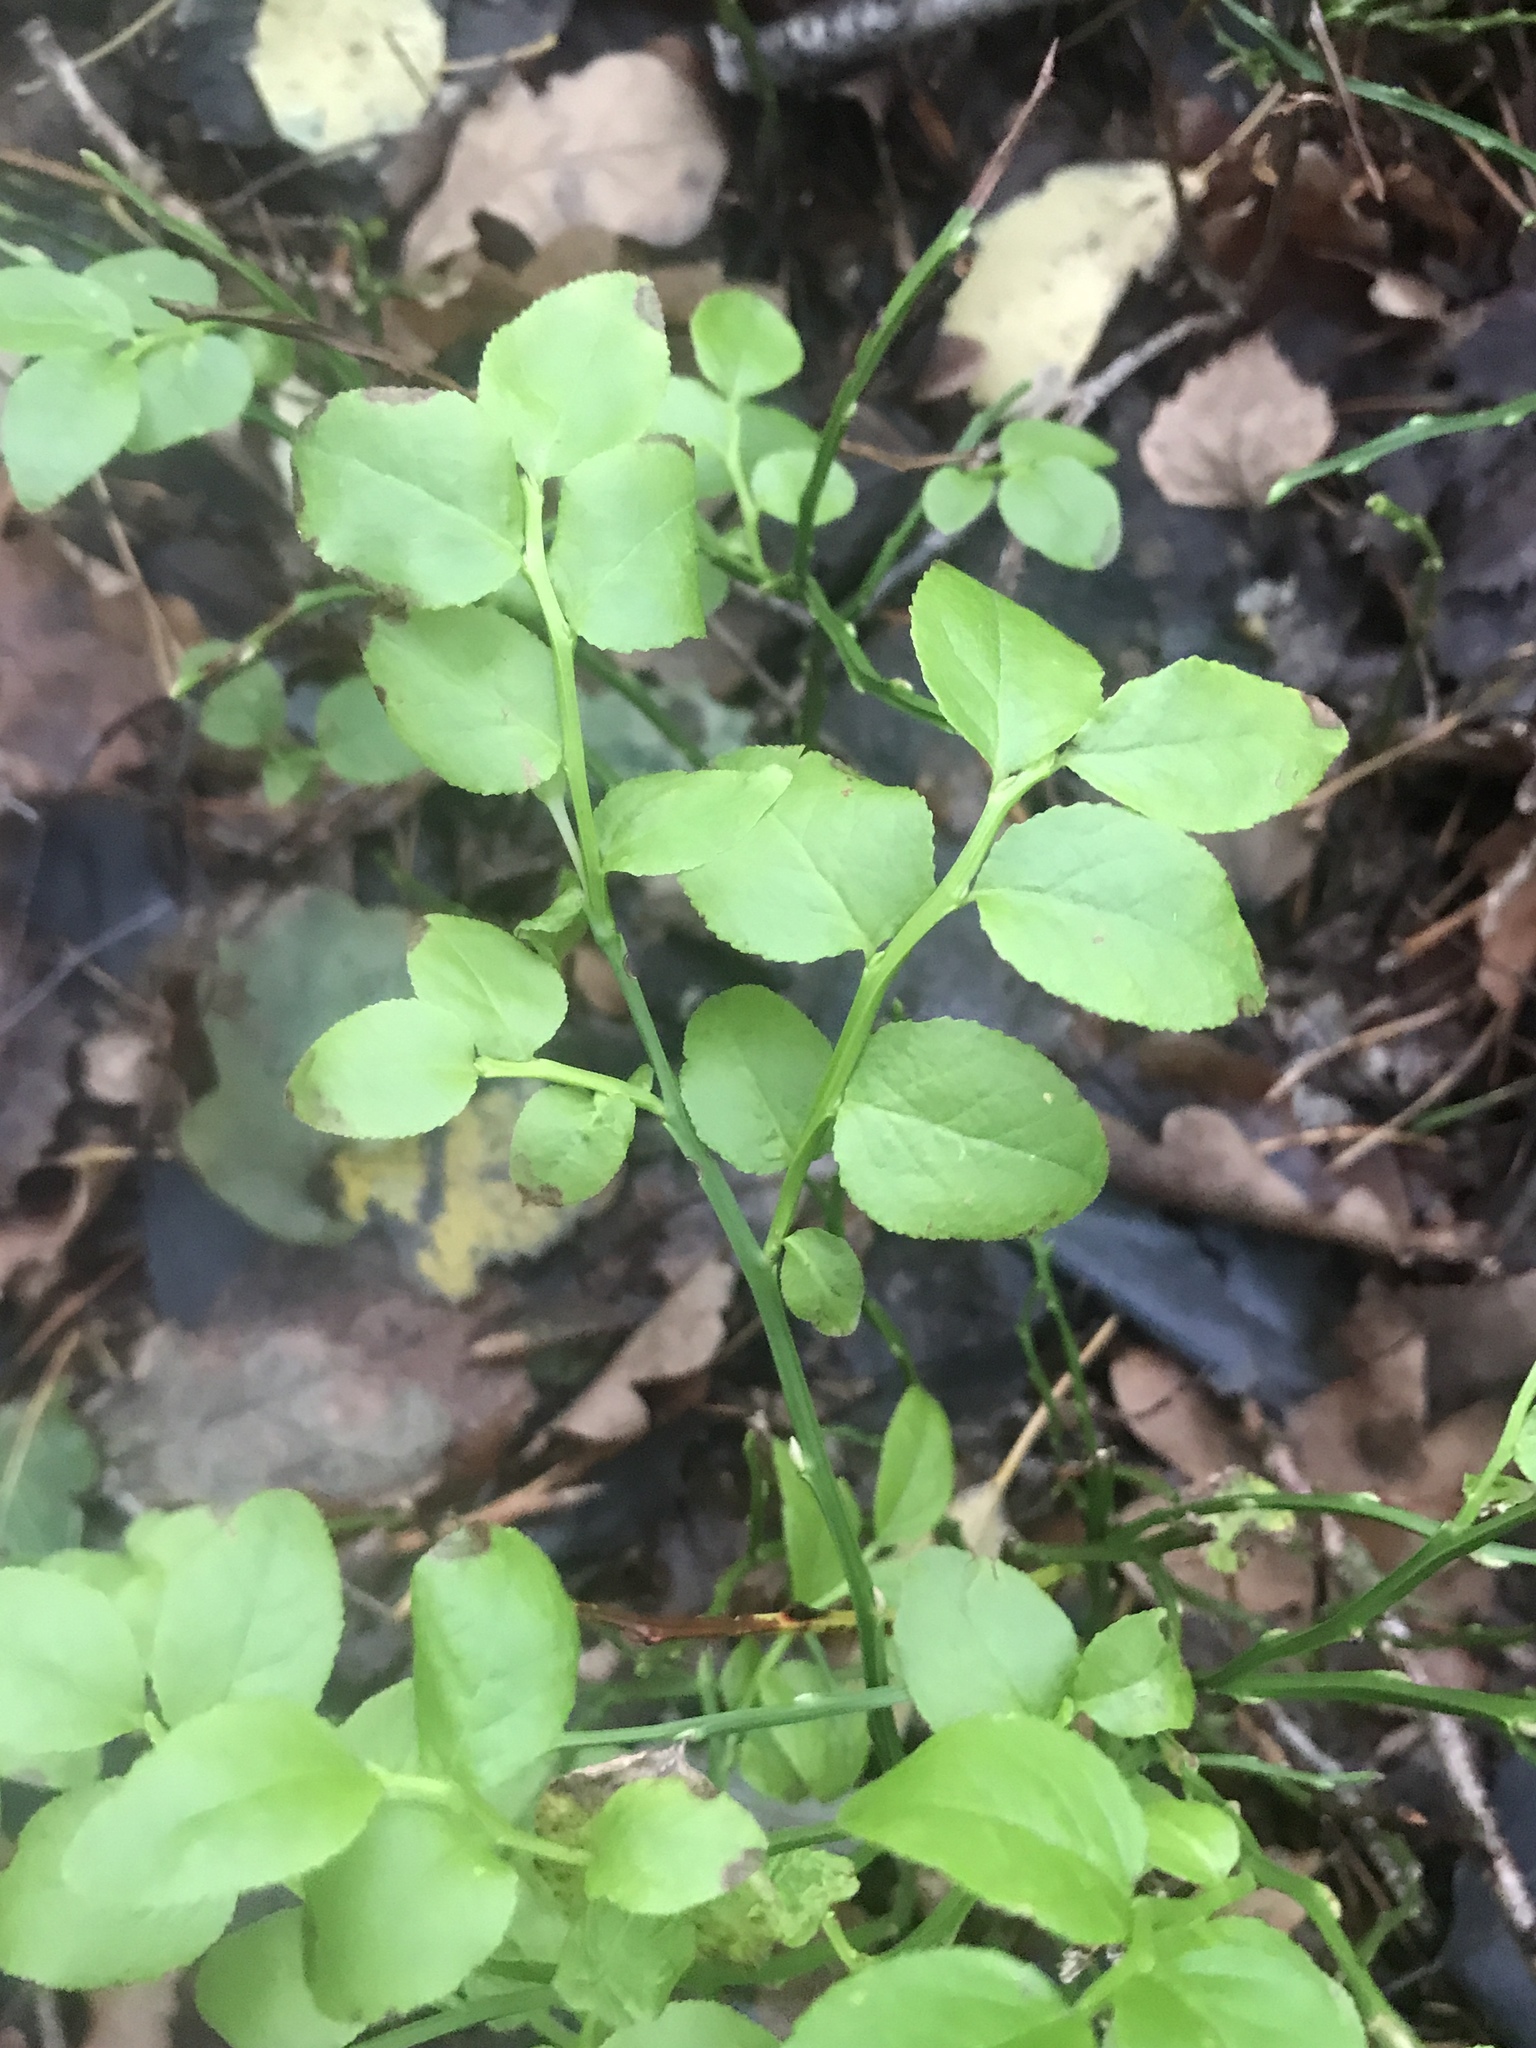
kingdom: Plantae
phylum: Tracheophyta
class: Magnoliopsida
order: Ericales
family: Ericaceae
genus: Vaccinium
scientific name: Vaccinium myrtillus
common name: Bilberry
